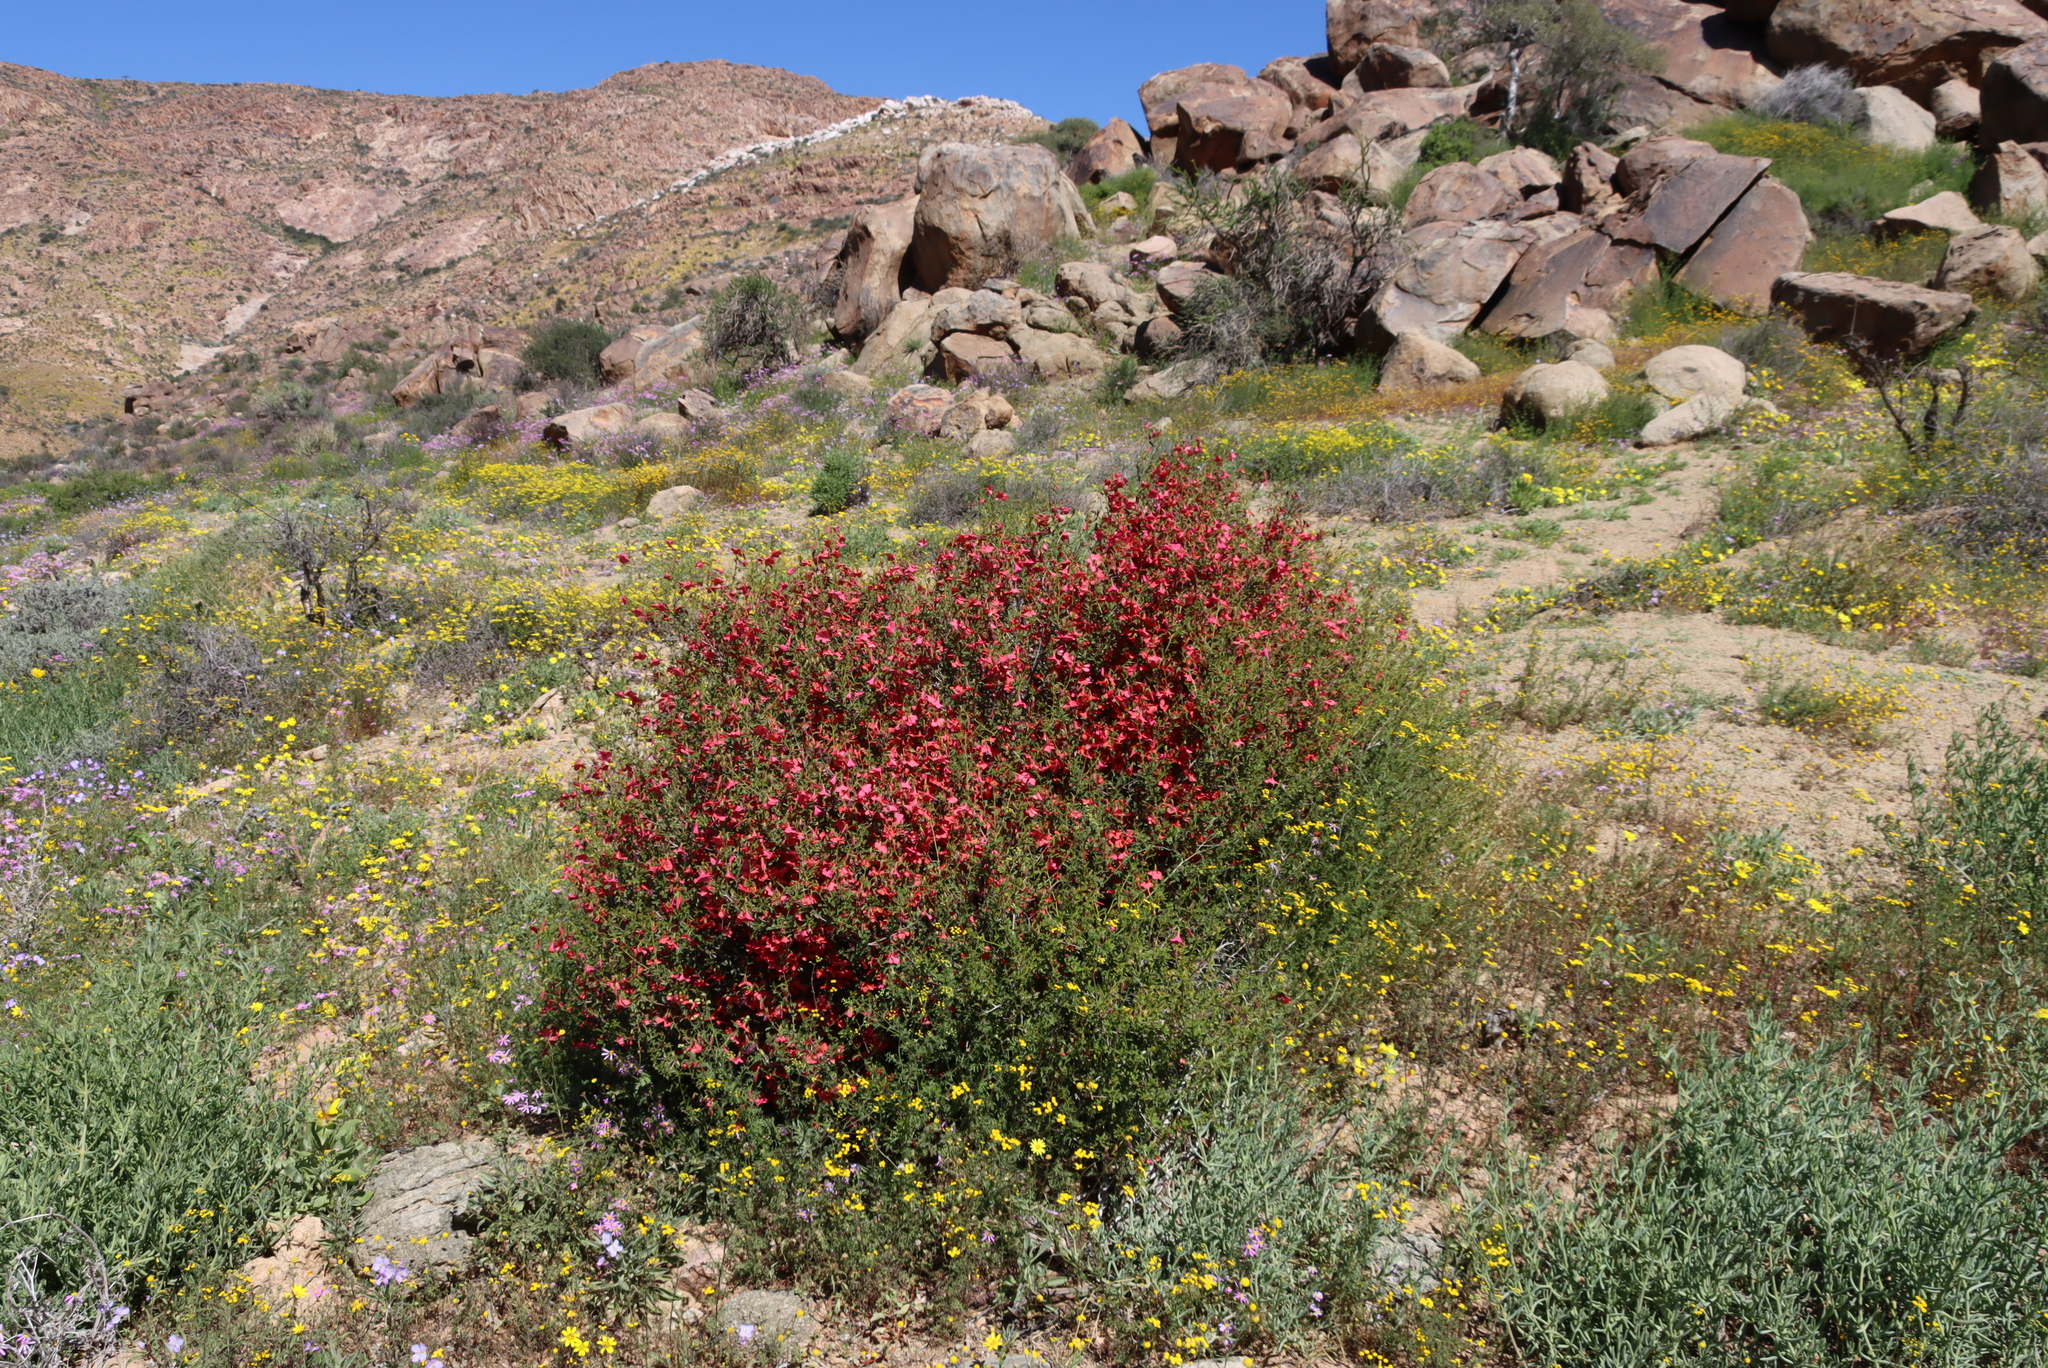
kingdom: Plantae
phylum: Tracheophyta
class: Magnoliopsida
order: Malvales
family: Malvaceae
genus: Hermannia
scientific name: Hermannia stricta
